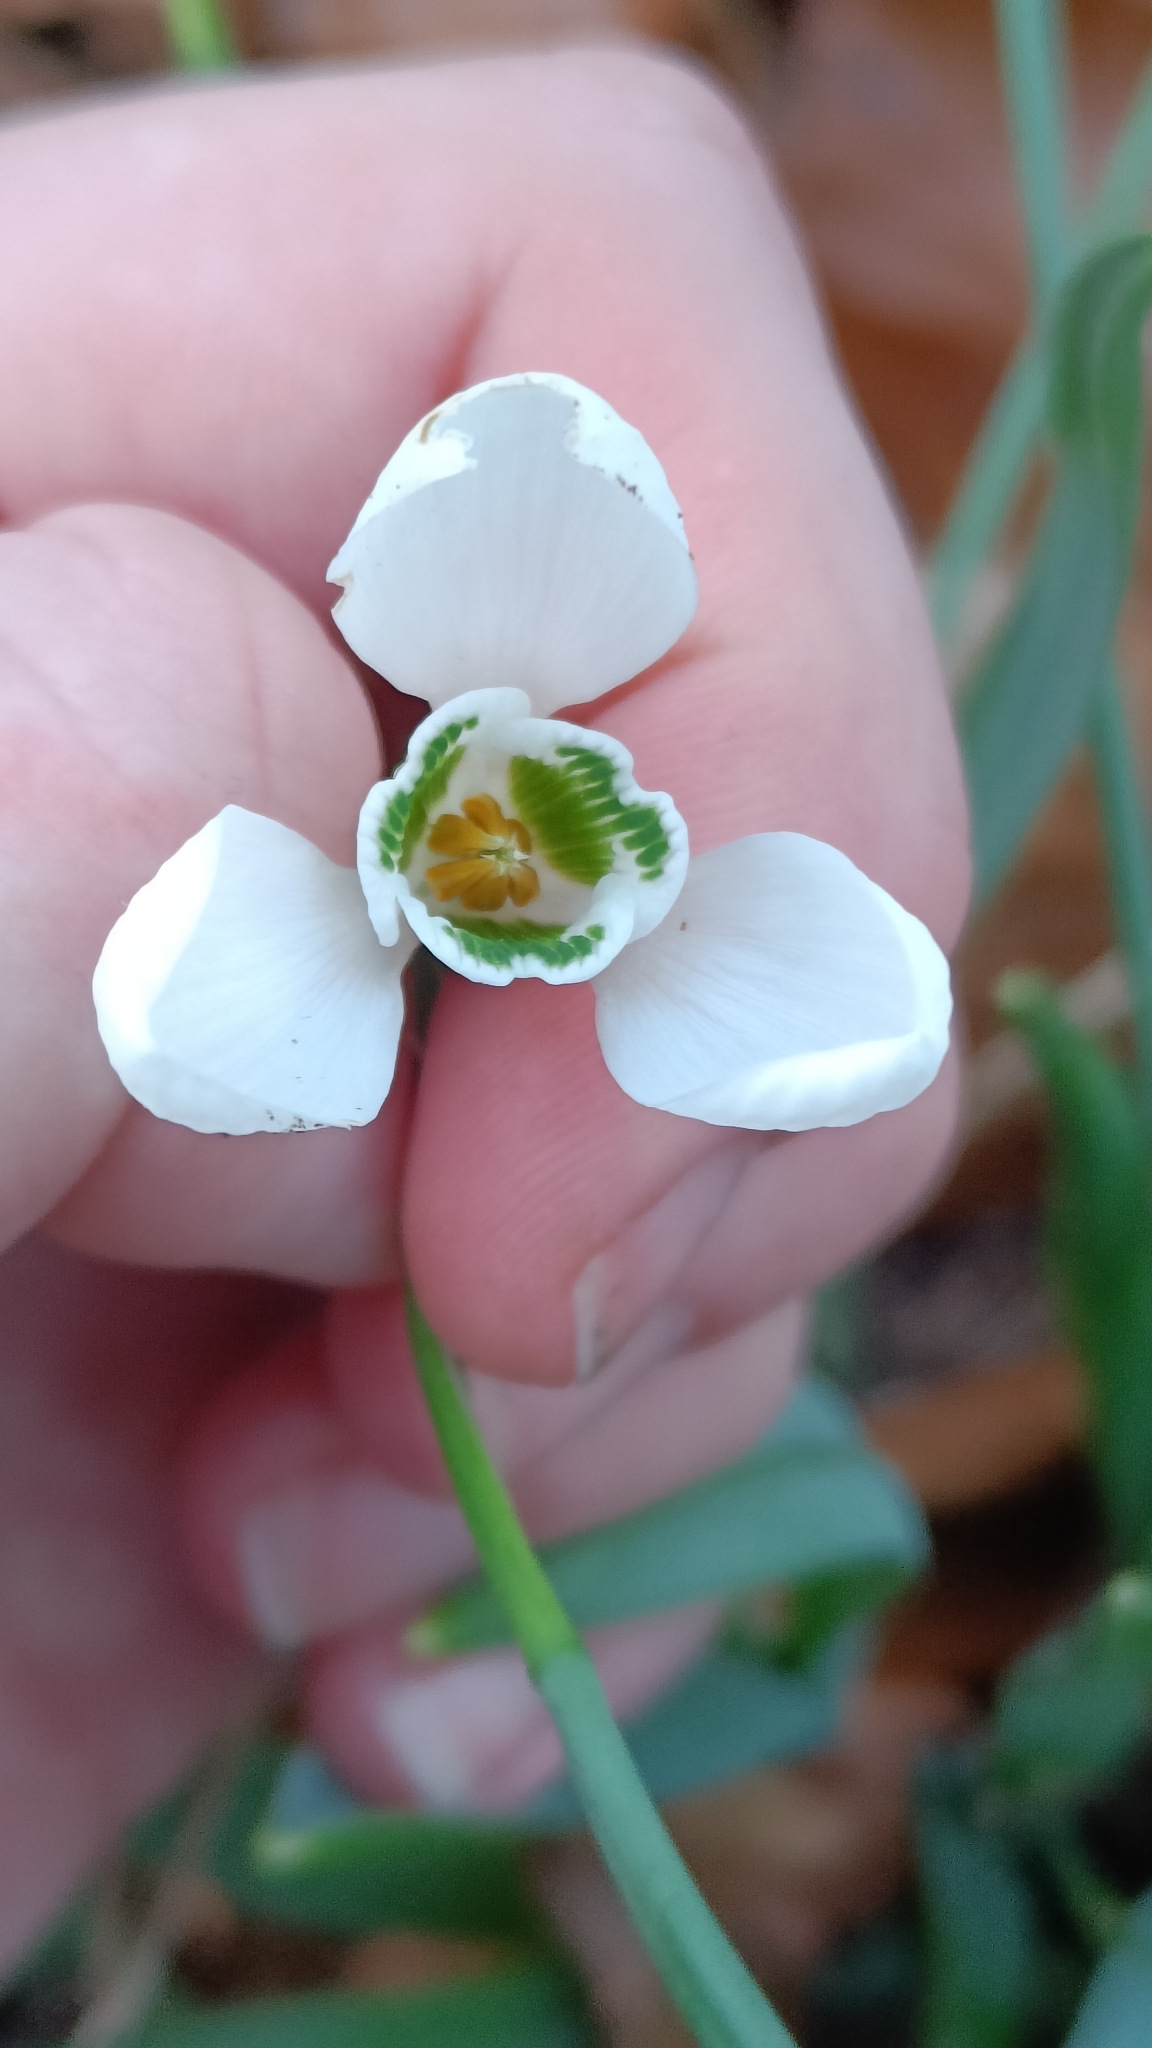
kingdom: Plantae
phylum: Tracheophyta
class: Liliopsida
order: Asparagales
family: Amaryllidaceae
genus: Galanthus
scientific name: Galanthus elwesii
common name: Greater snowdrop
